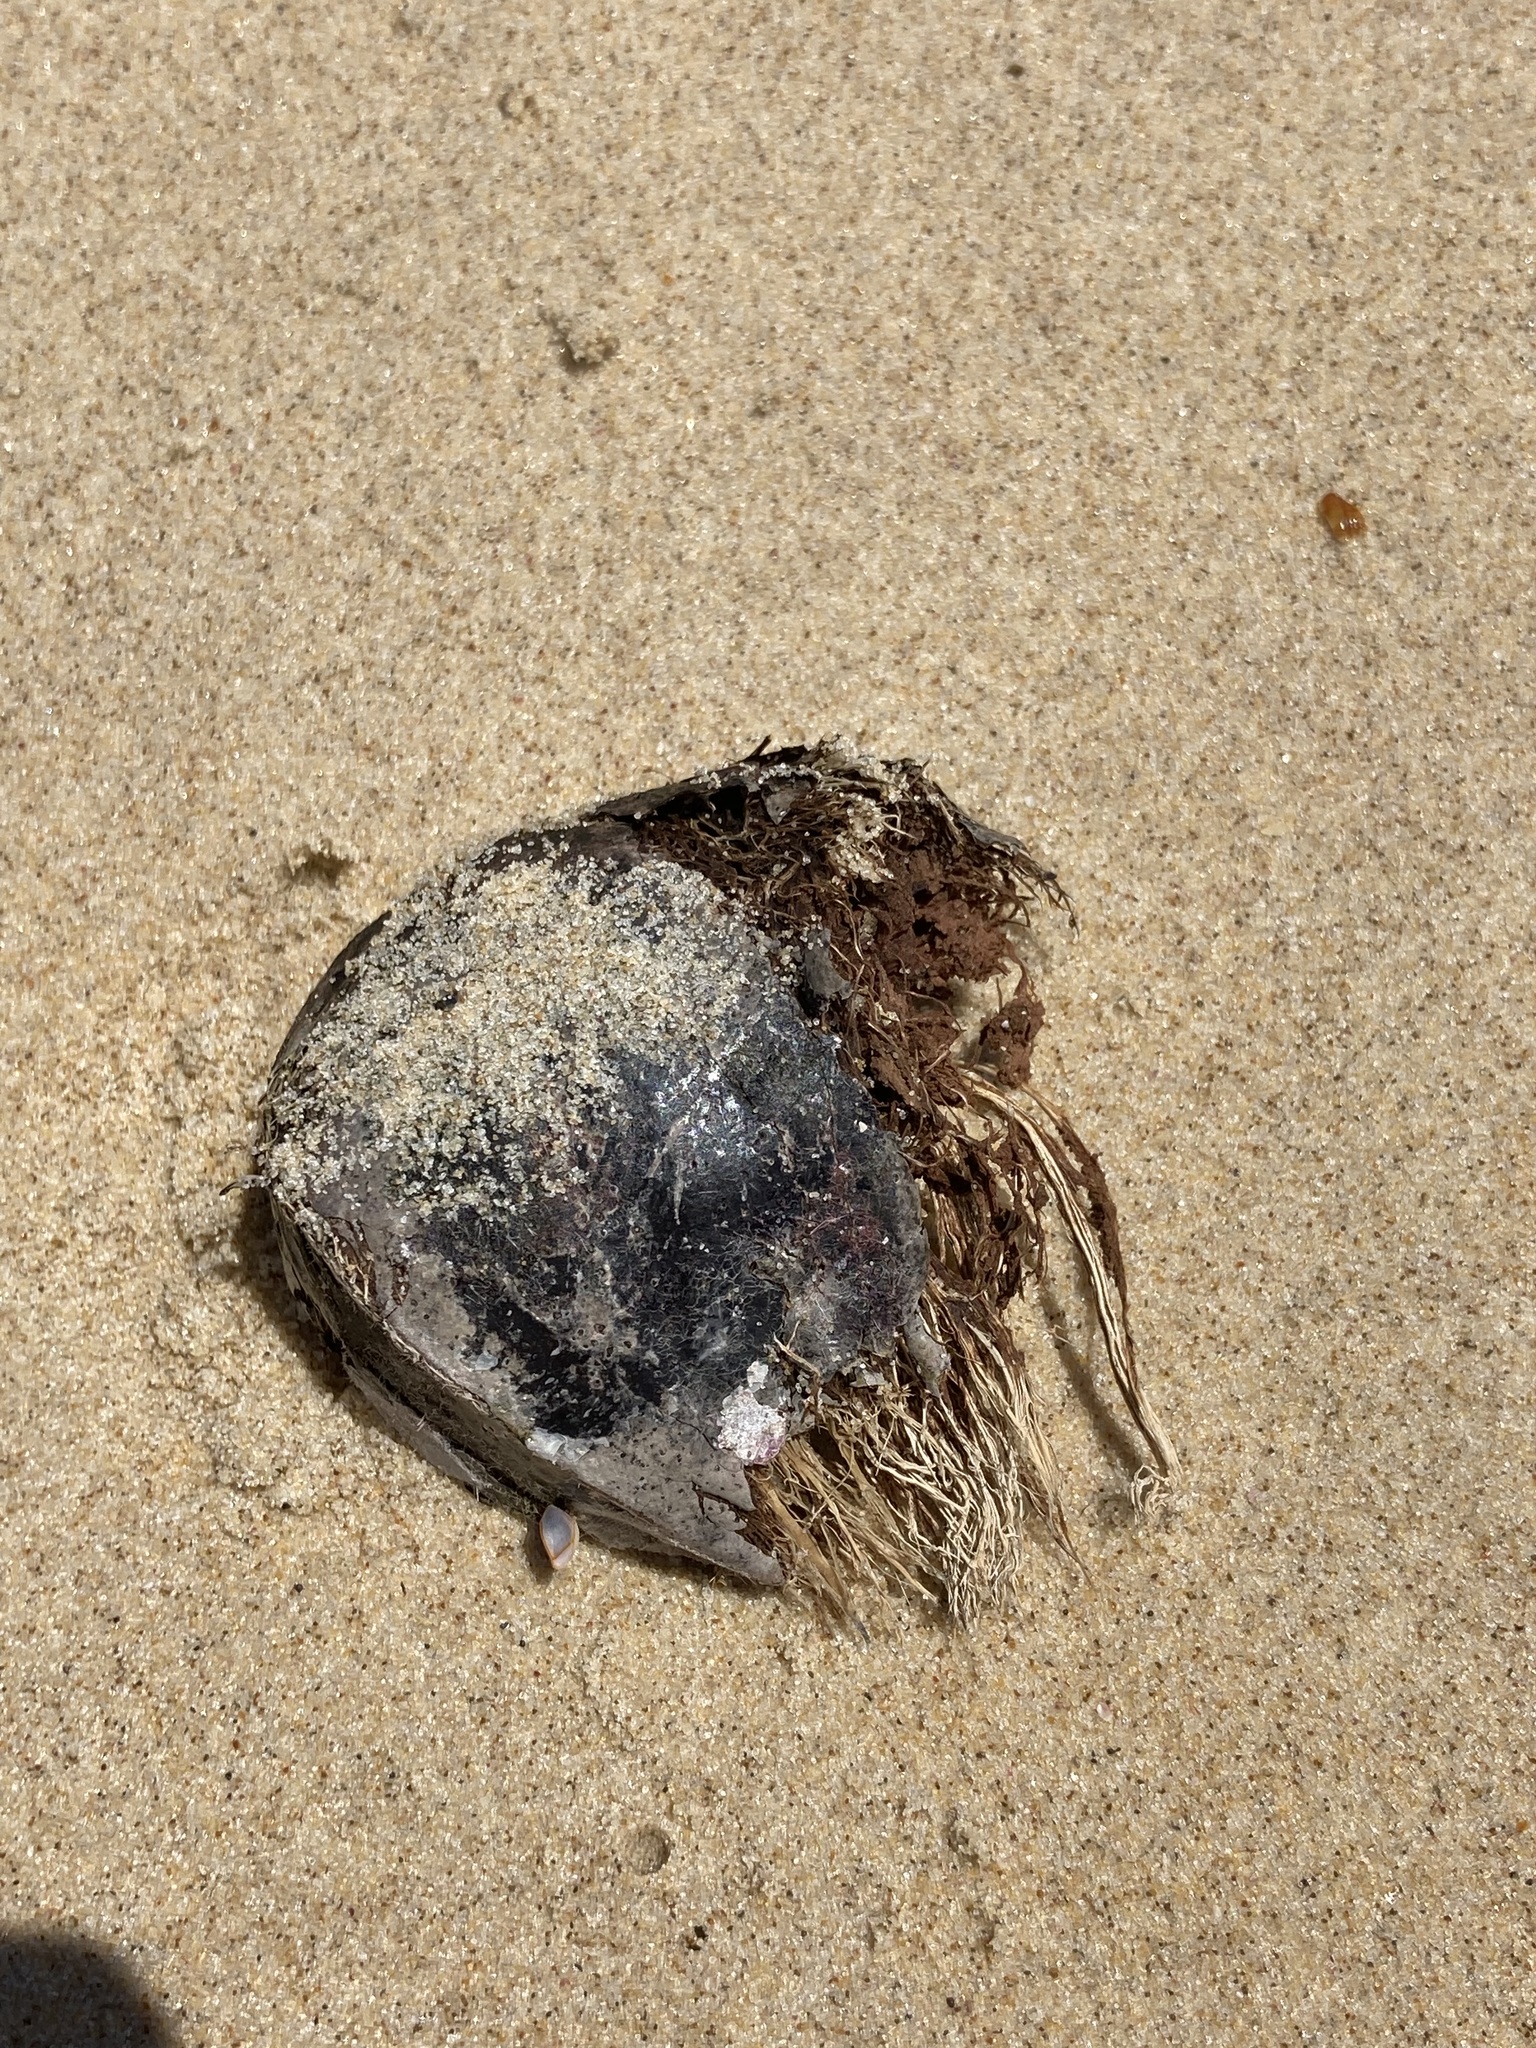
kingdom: Plantae
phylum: Tracheophyta
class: Magnoliopsida
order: Ericales
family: Lecythidaceae
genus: Barringtonia
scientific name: Barringtonia asiatica
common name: Mango-pine
